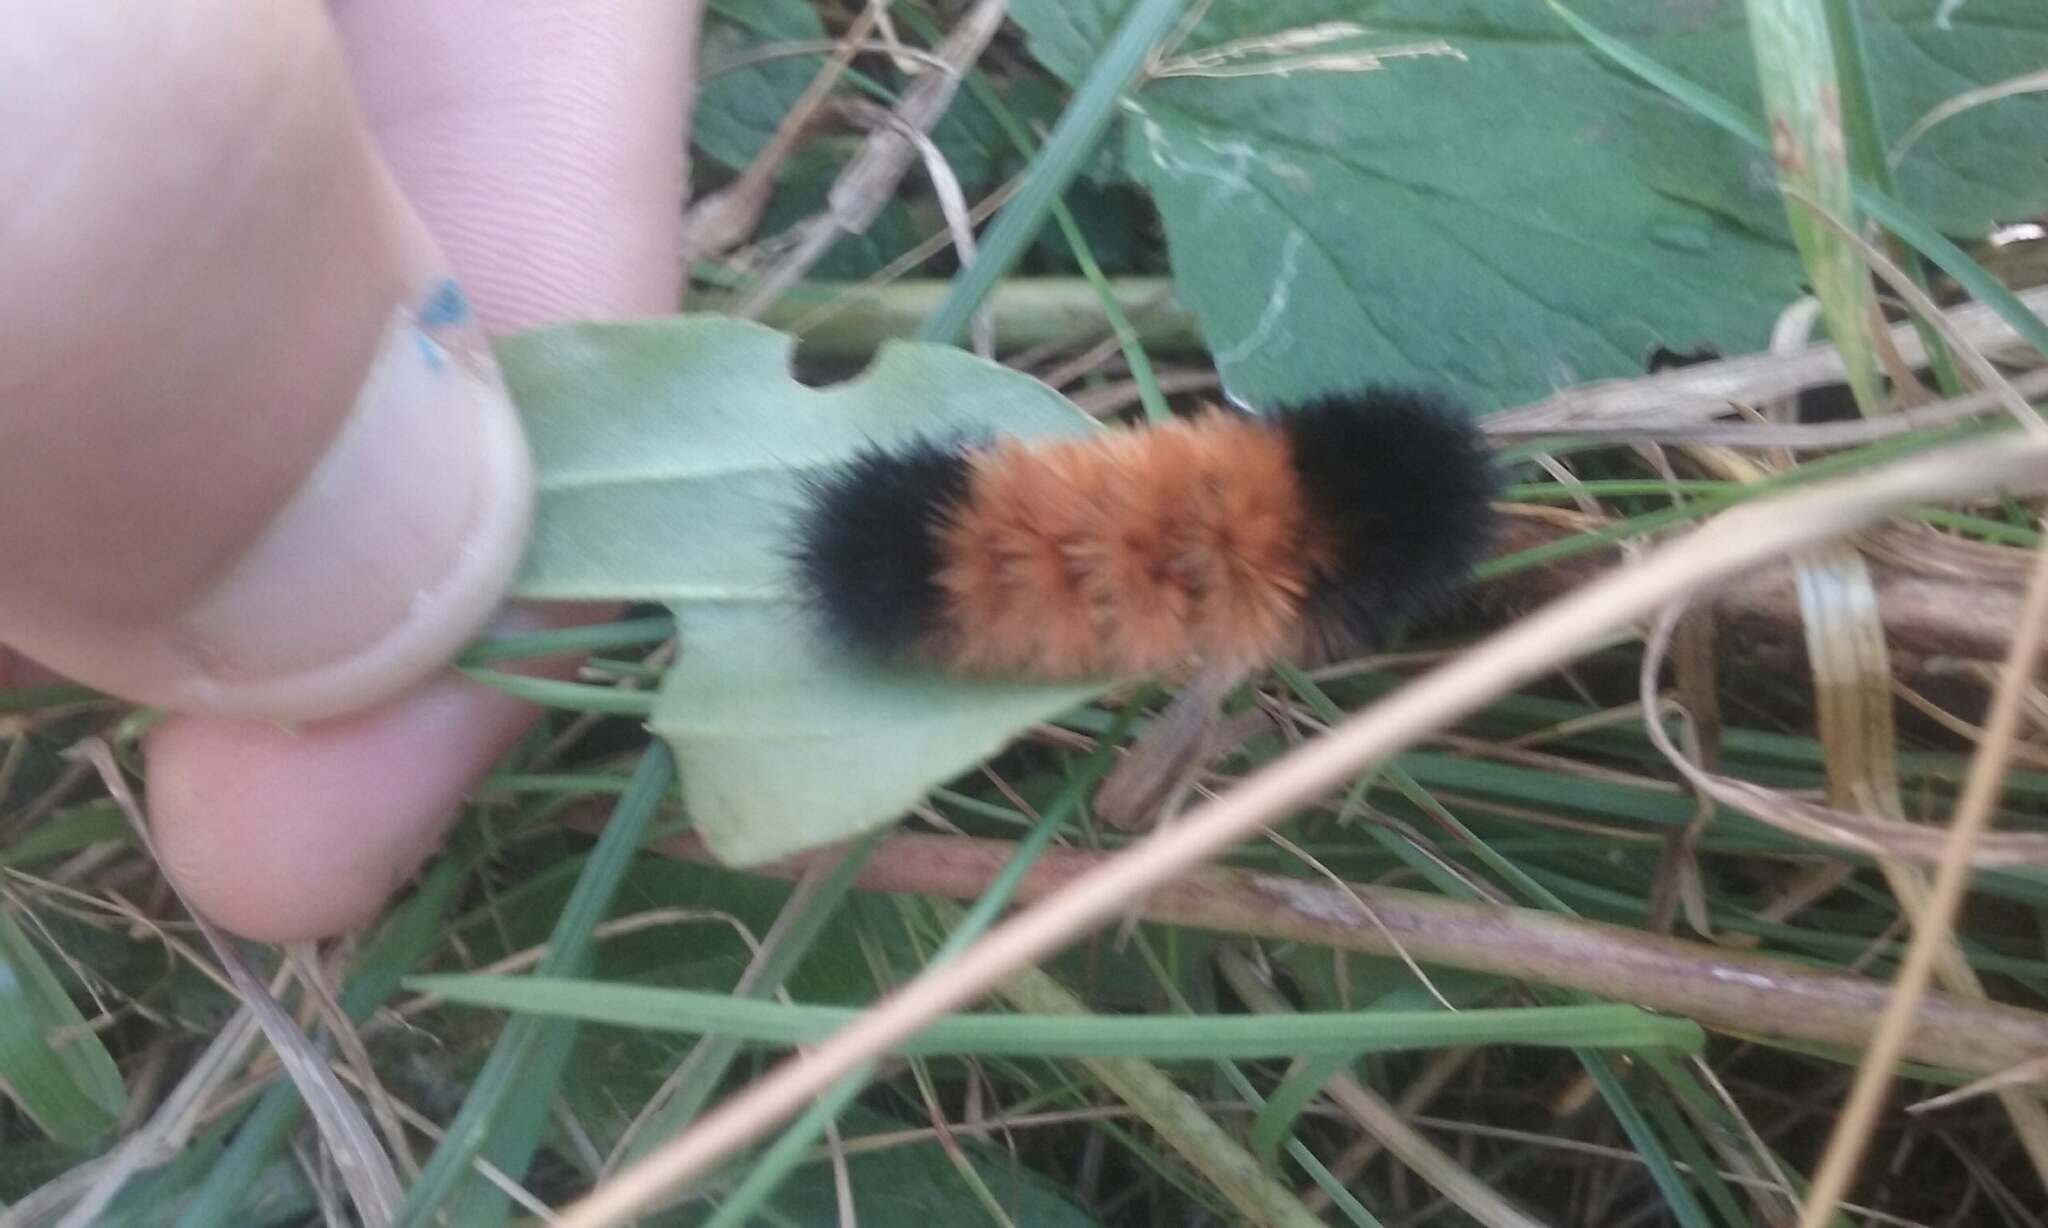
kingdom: Animalia
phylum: Arthropoda
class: Insecta
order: Lepidoptera
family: Erebidae
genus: Pyrrharctia
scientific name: Pyrrharctia isabella
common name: Isabella tiger moth
